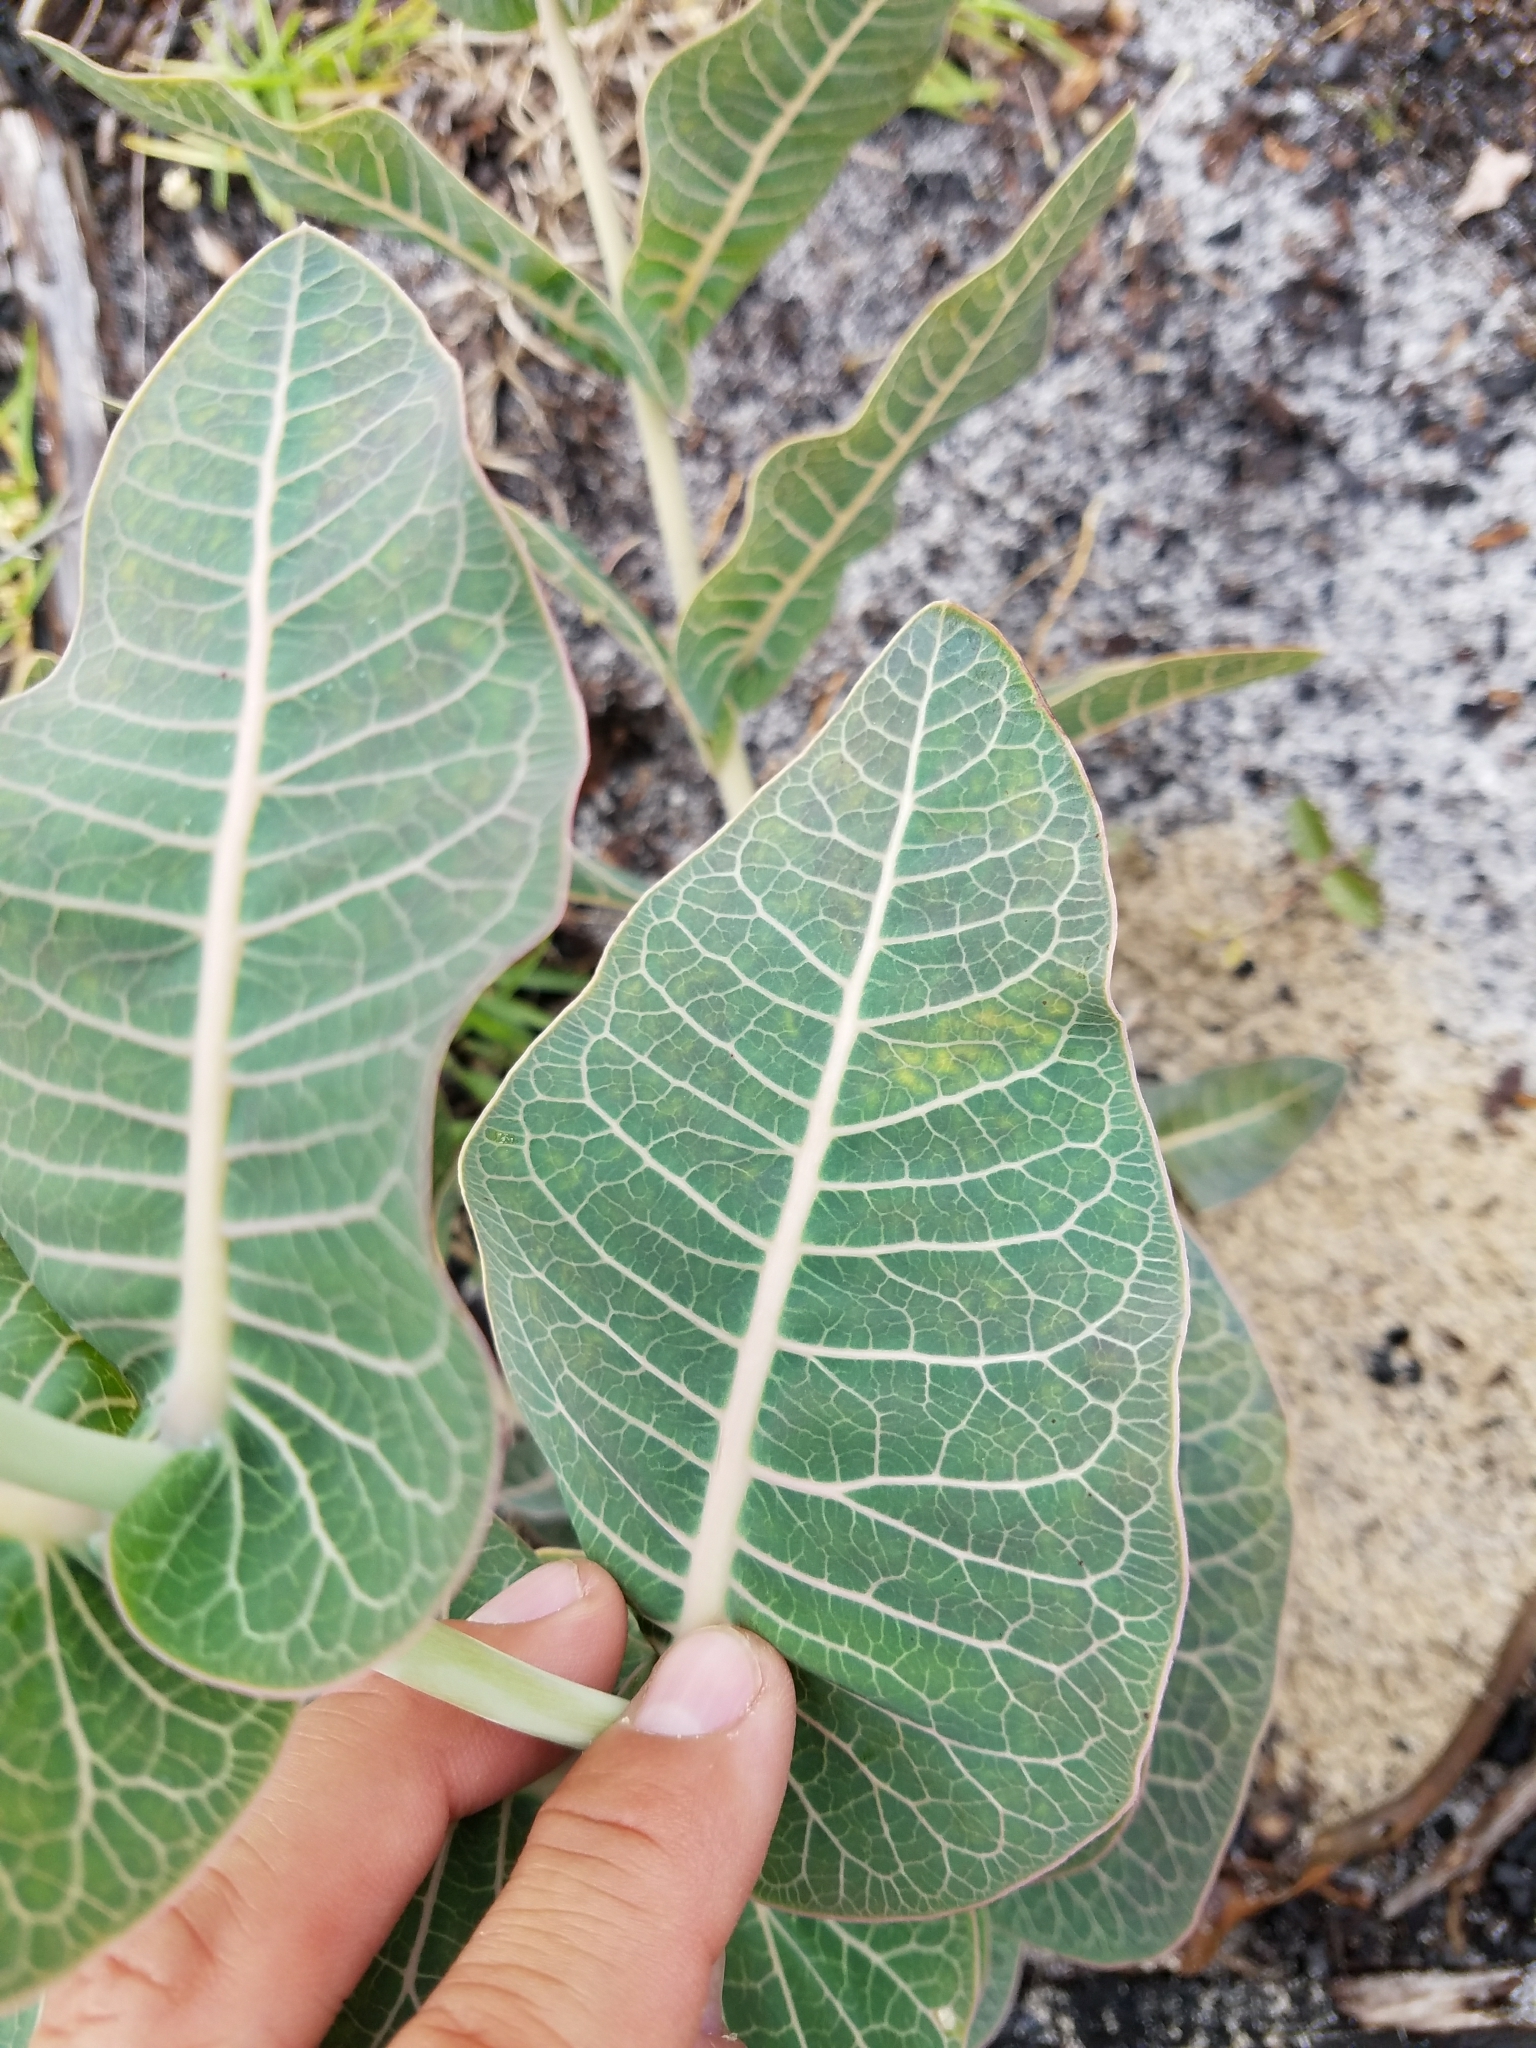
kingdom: Plantae
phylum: Tracheophyta
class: Magnoliopsida
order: Gentianales
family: Apocynaceae
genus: Asclepias
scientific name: Asclepias humistrata
